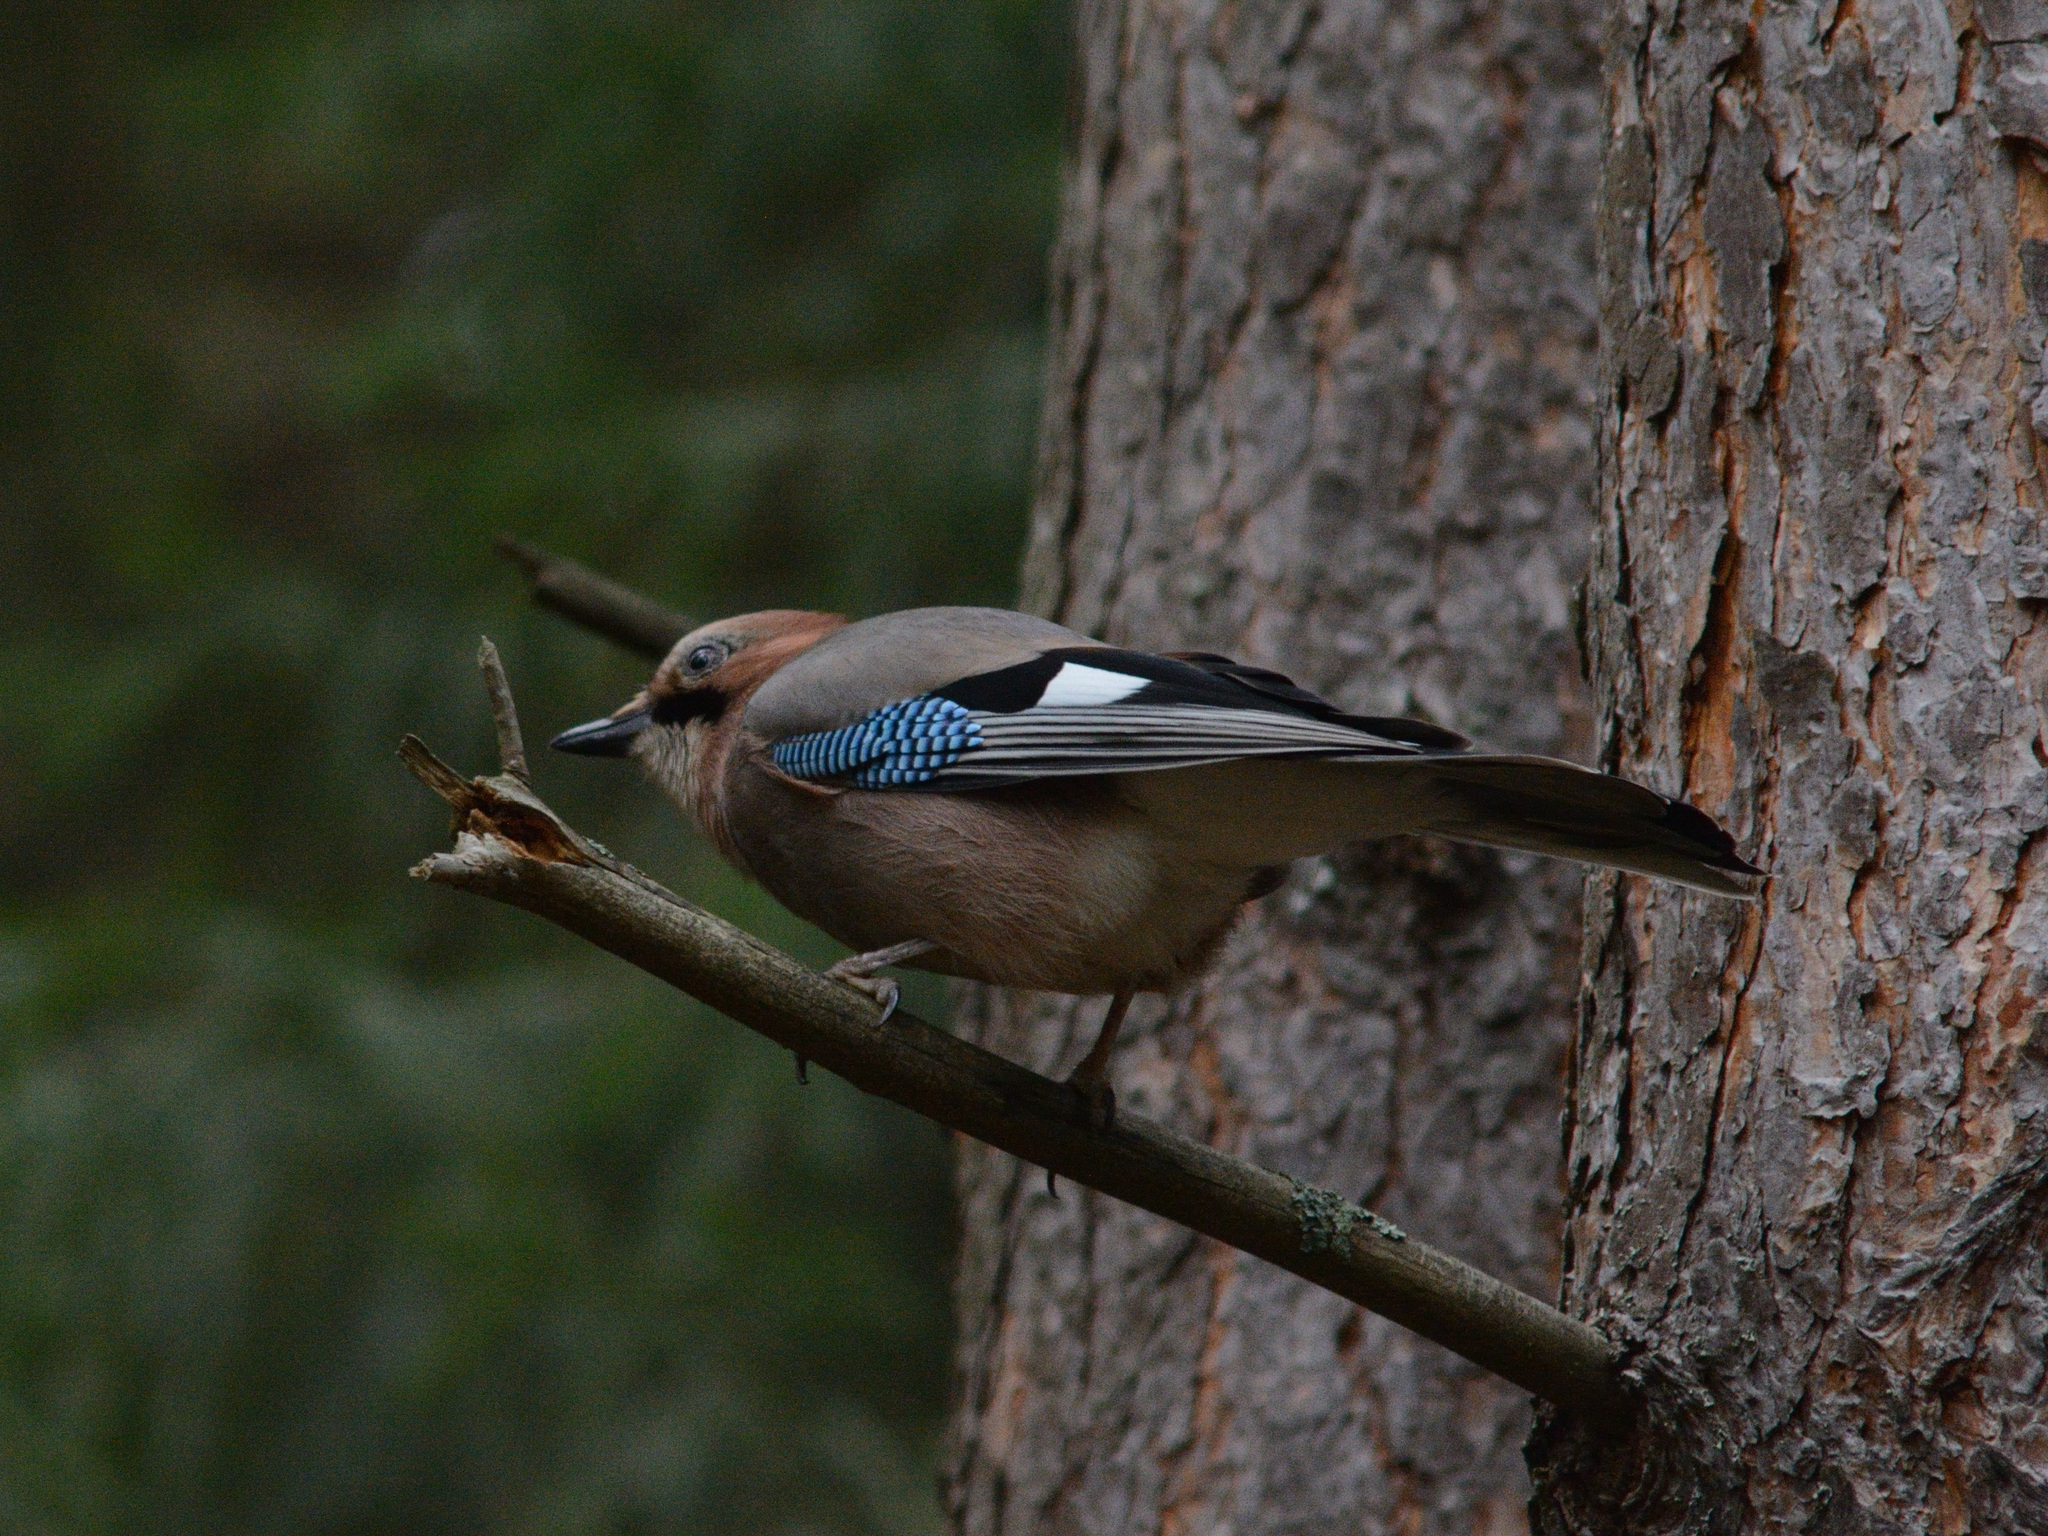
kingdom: Animalia
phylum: Chordata
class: Aves
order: Passeriformes
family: Corvidae
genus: Garrulus
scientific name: Garrulus glandarius
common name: Eurasian jay
